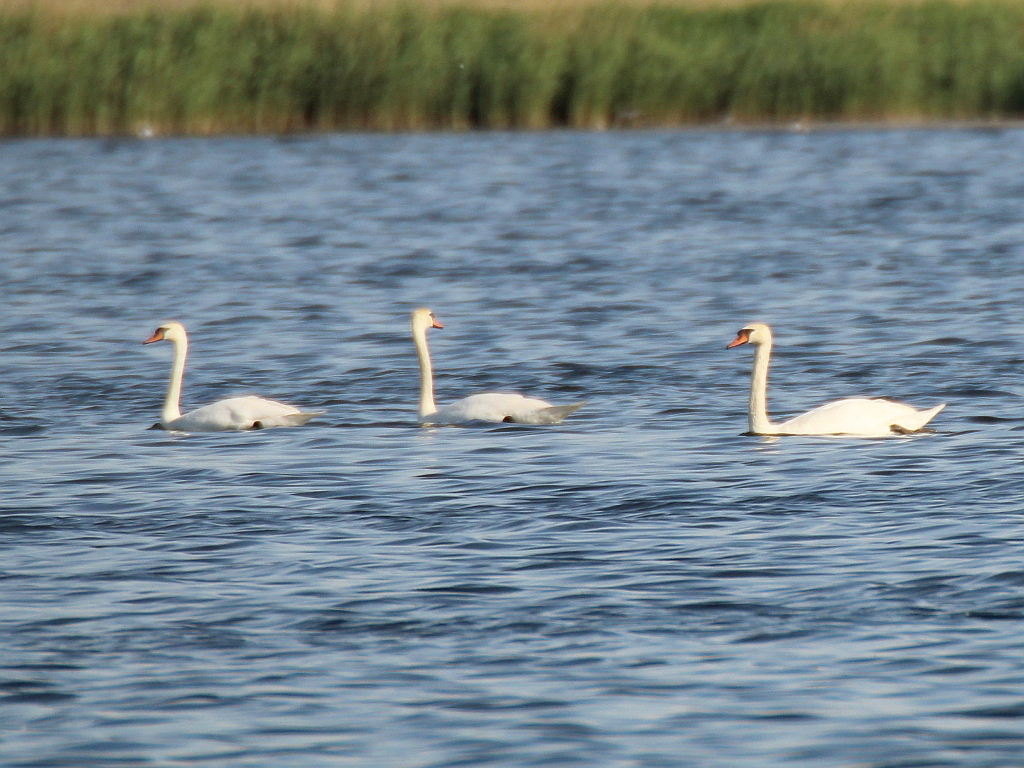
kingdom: Animalia
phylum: Chordata
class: Aves
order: Anseriformes
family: Anatidae
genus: Cygnus
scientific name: Cygnus olor
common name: Mute swan
